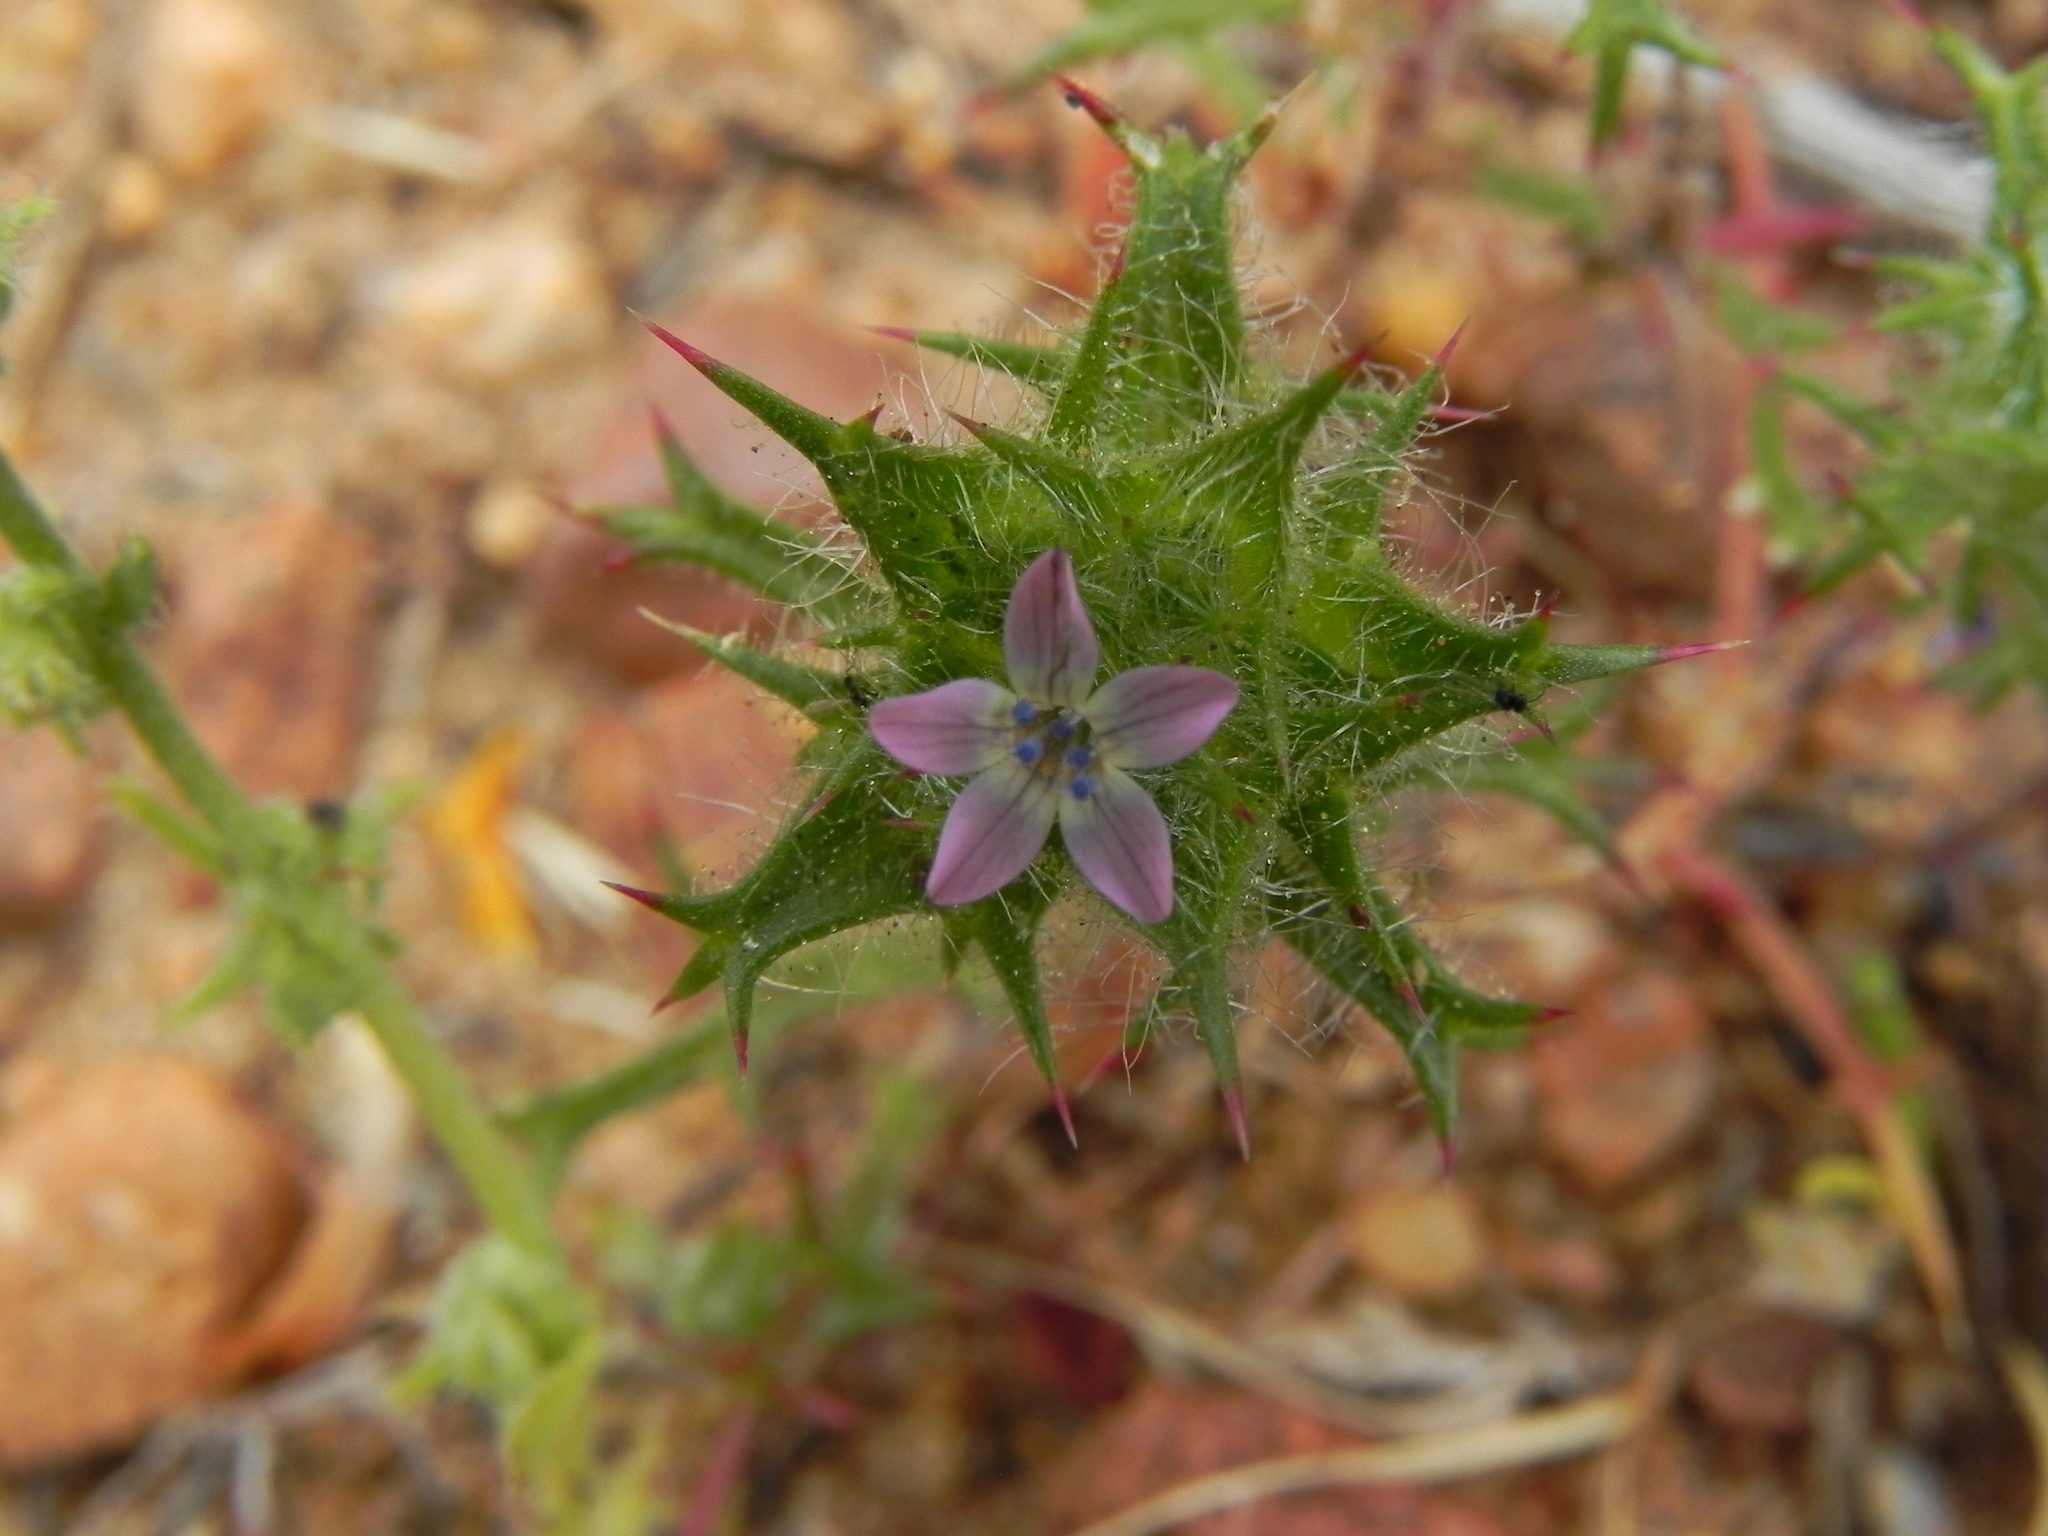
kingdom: Plantae
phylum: Tracheophyta
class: Magnoliopsida
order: Ericales
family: Polemoniaceae
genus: Navarretia
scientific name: Navarretia hamata
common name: Hooked navarretia
